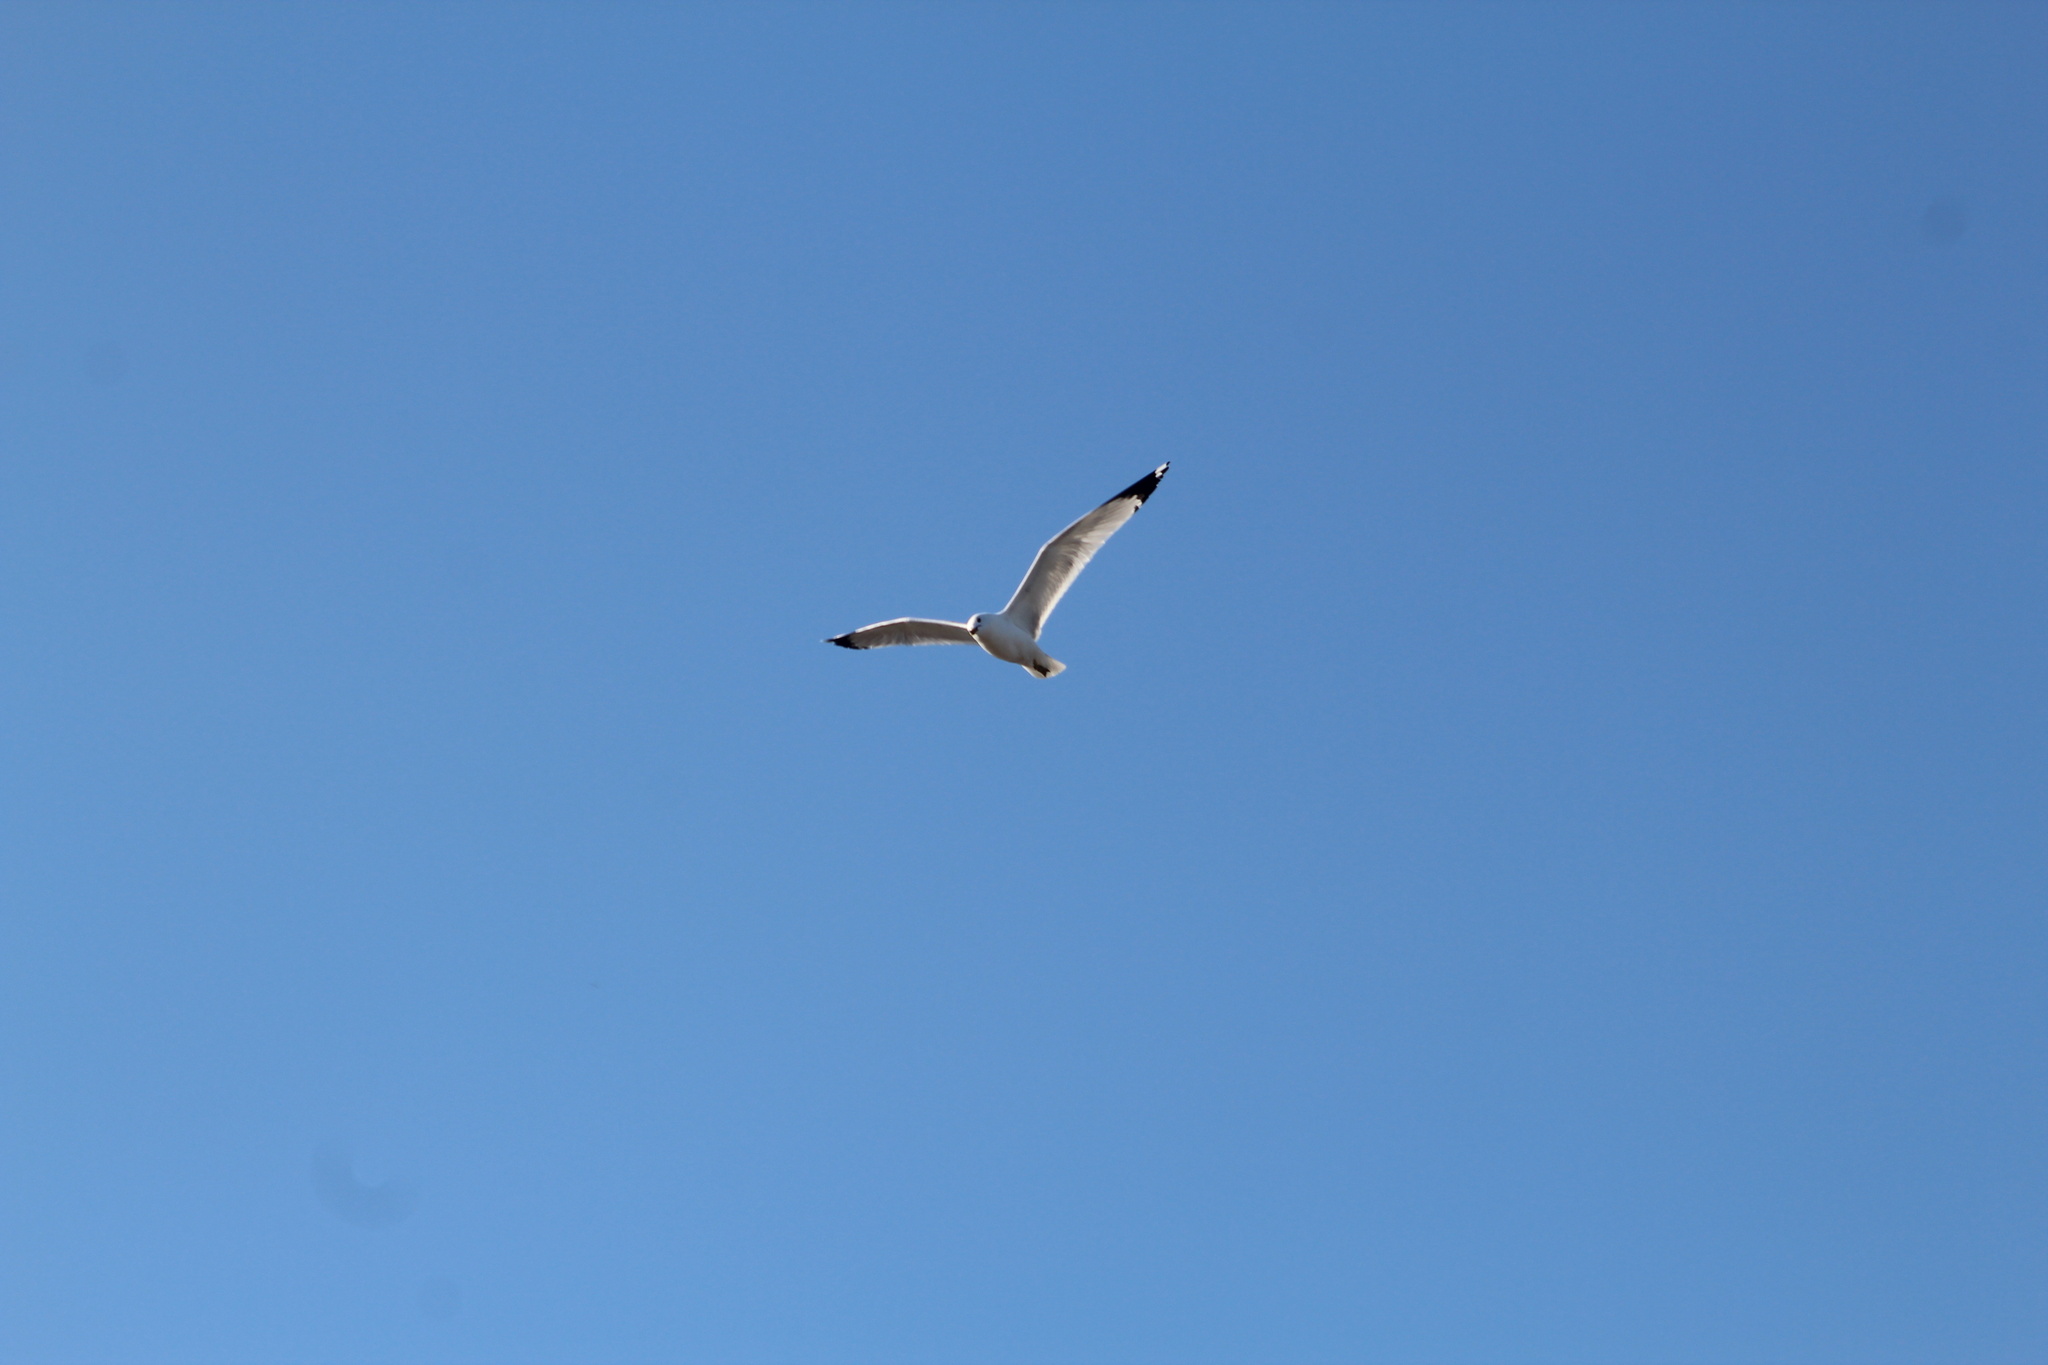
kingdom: Animalia
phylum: Chordata
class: Aves
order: Charadriiformes
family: Laridae
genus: Larus
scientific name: Larus delawarensis
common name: Ring-billed gull
